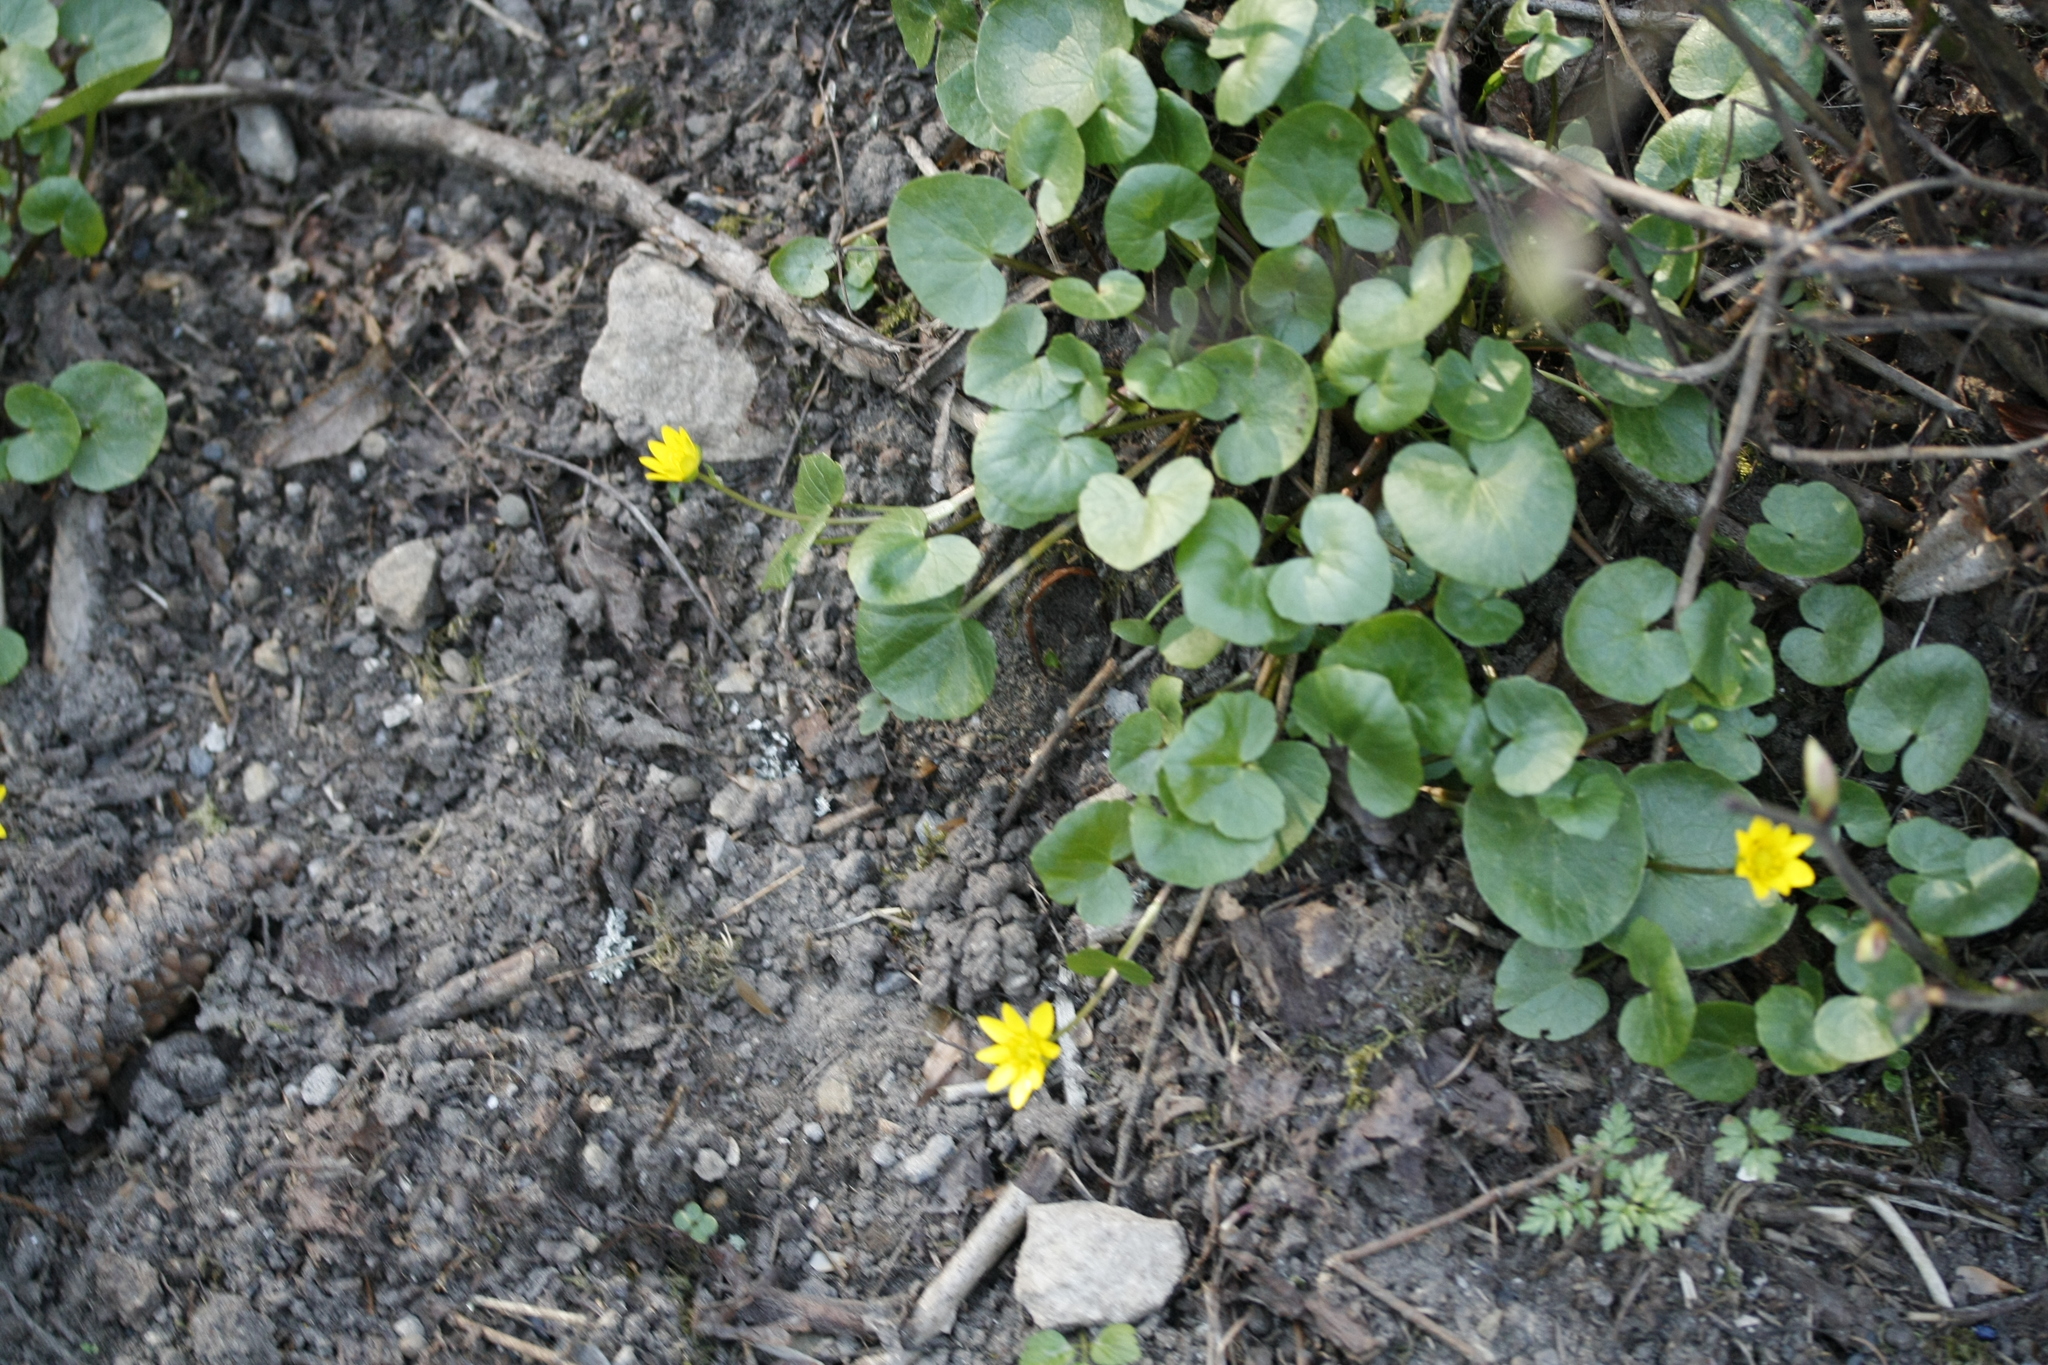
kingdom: Plantae
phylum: Tracheophyta
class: Magnoliopsida
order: Ranunculales
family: Ranunculaceae
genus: Ficaria
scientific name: Ficaria verna
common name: Lesser celandine
